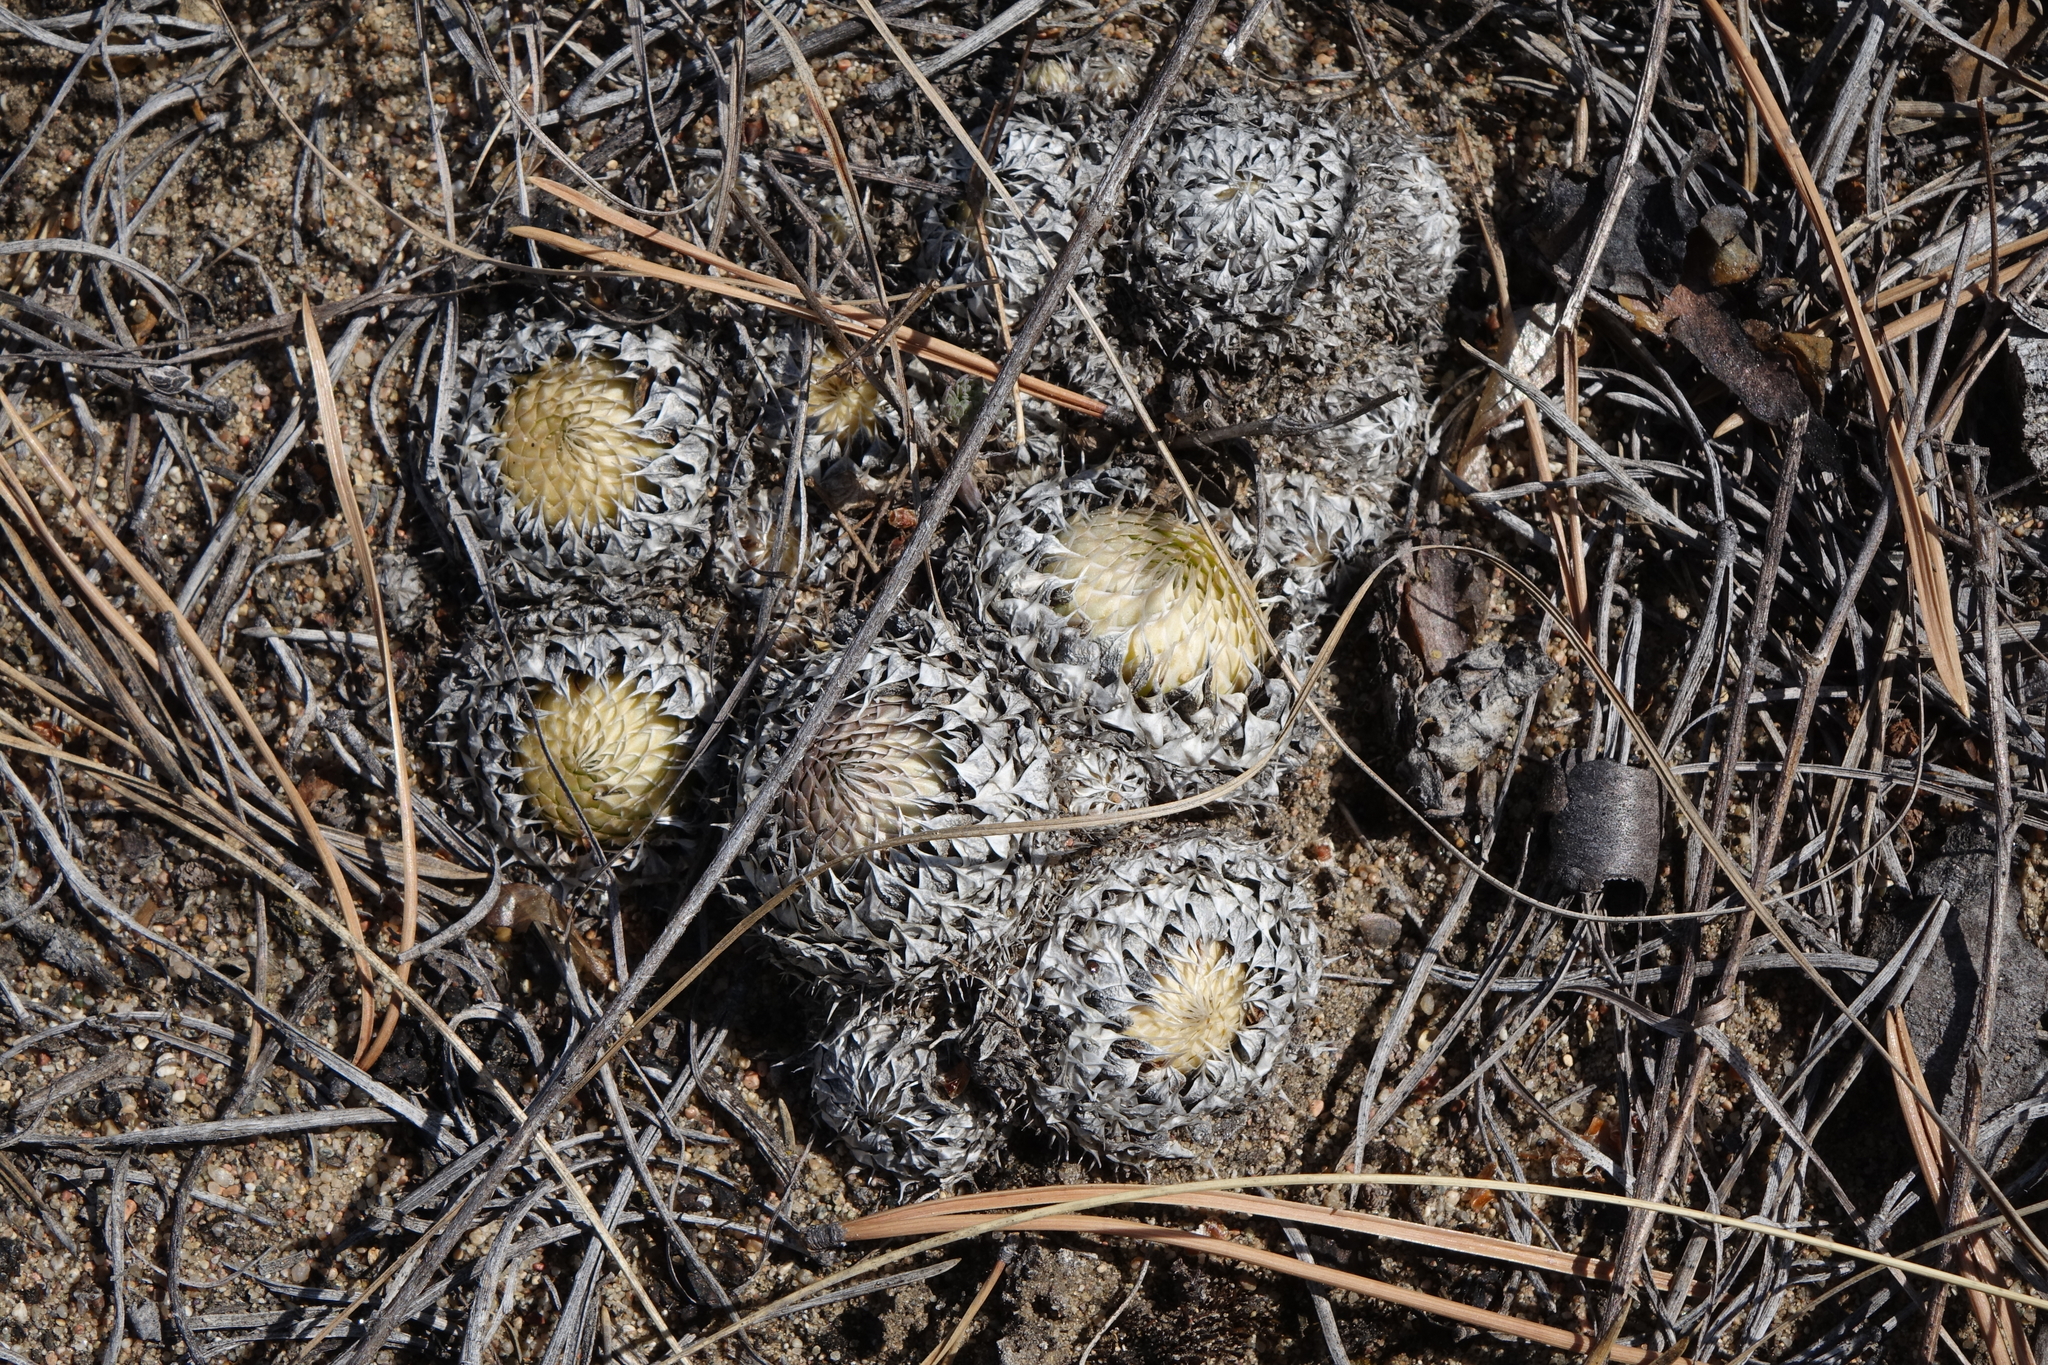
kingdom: Plantae
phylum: Tracheophyta
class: Magnoliopsida
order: Saxifragales
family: Crassulaceae
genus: Orostachys
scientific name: Orostachys spinosa
